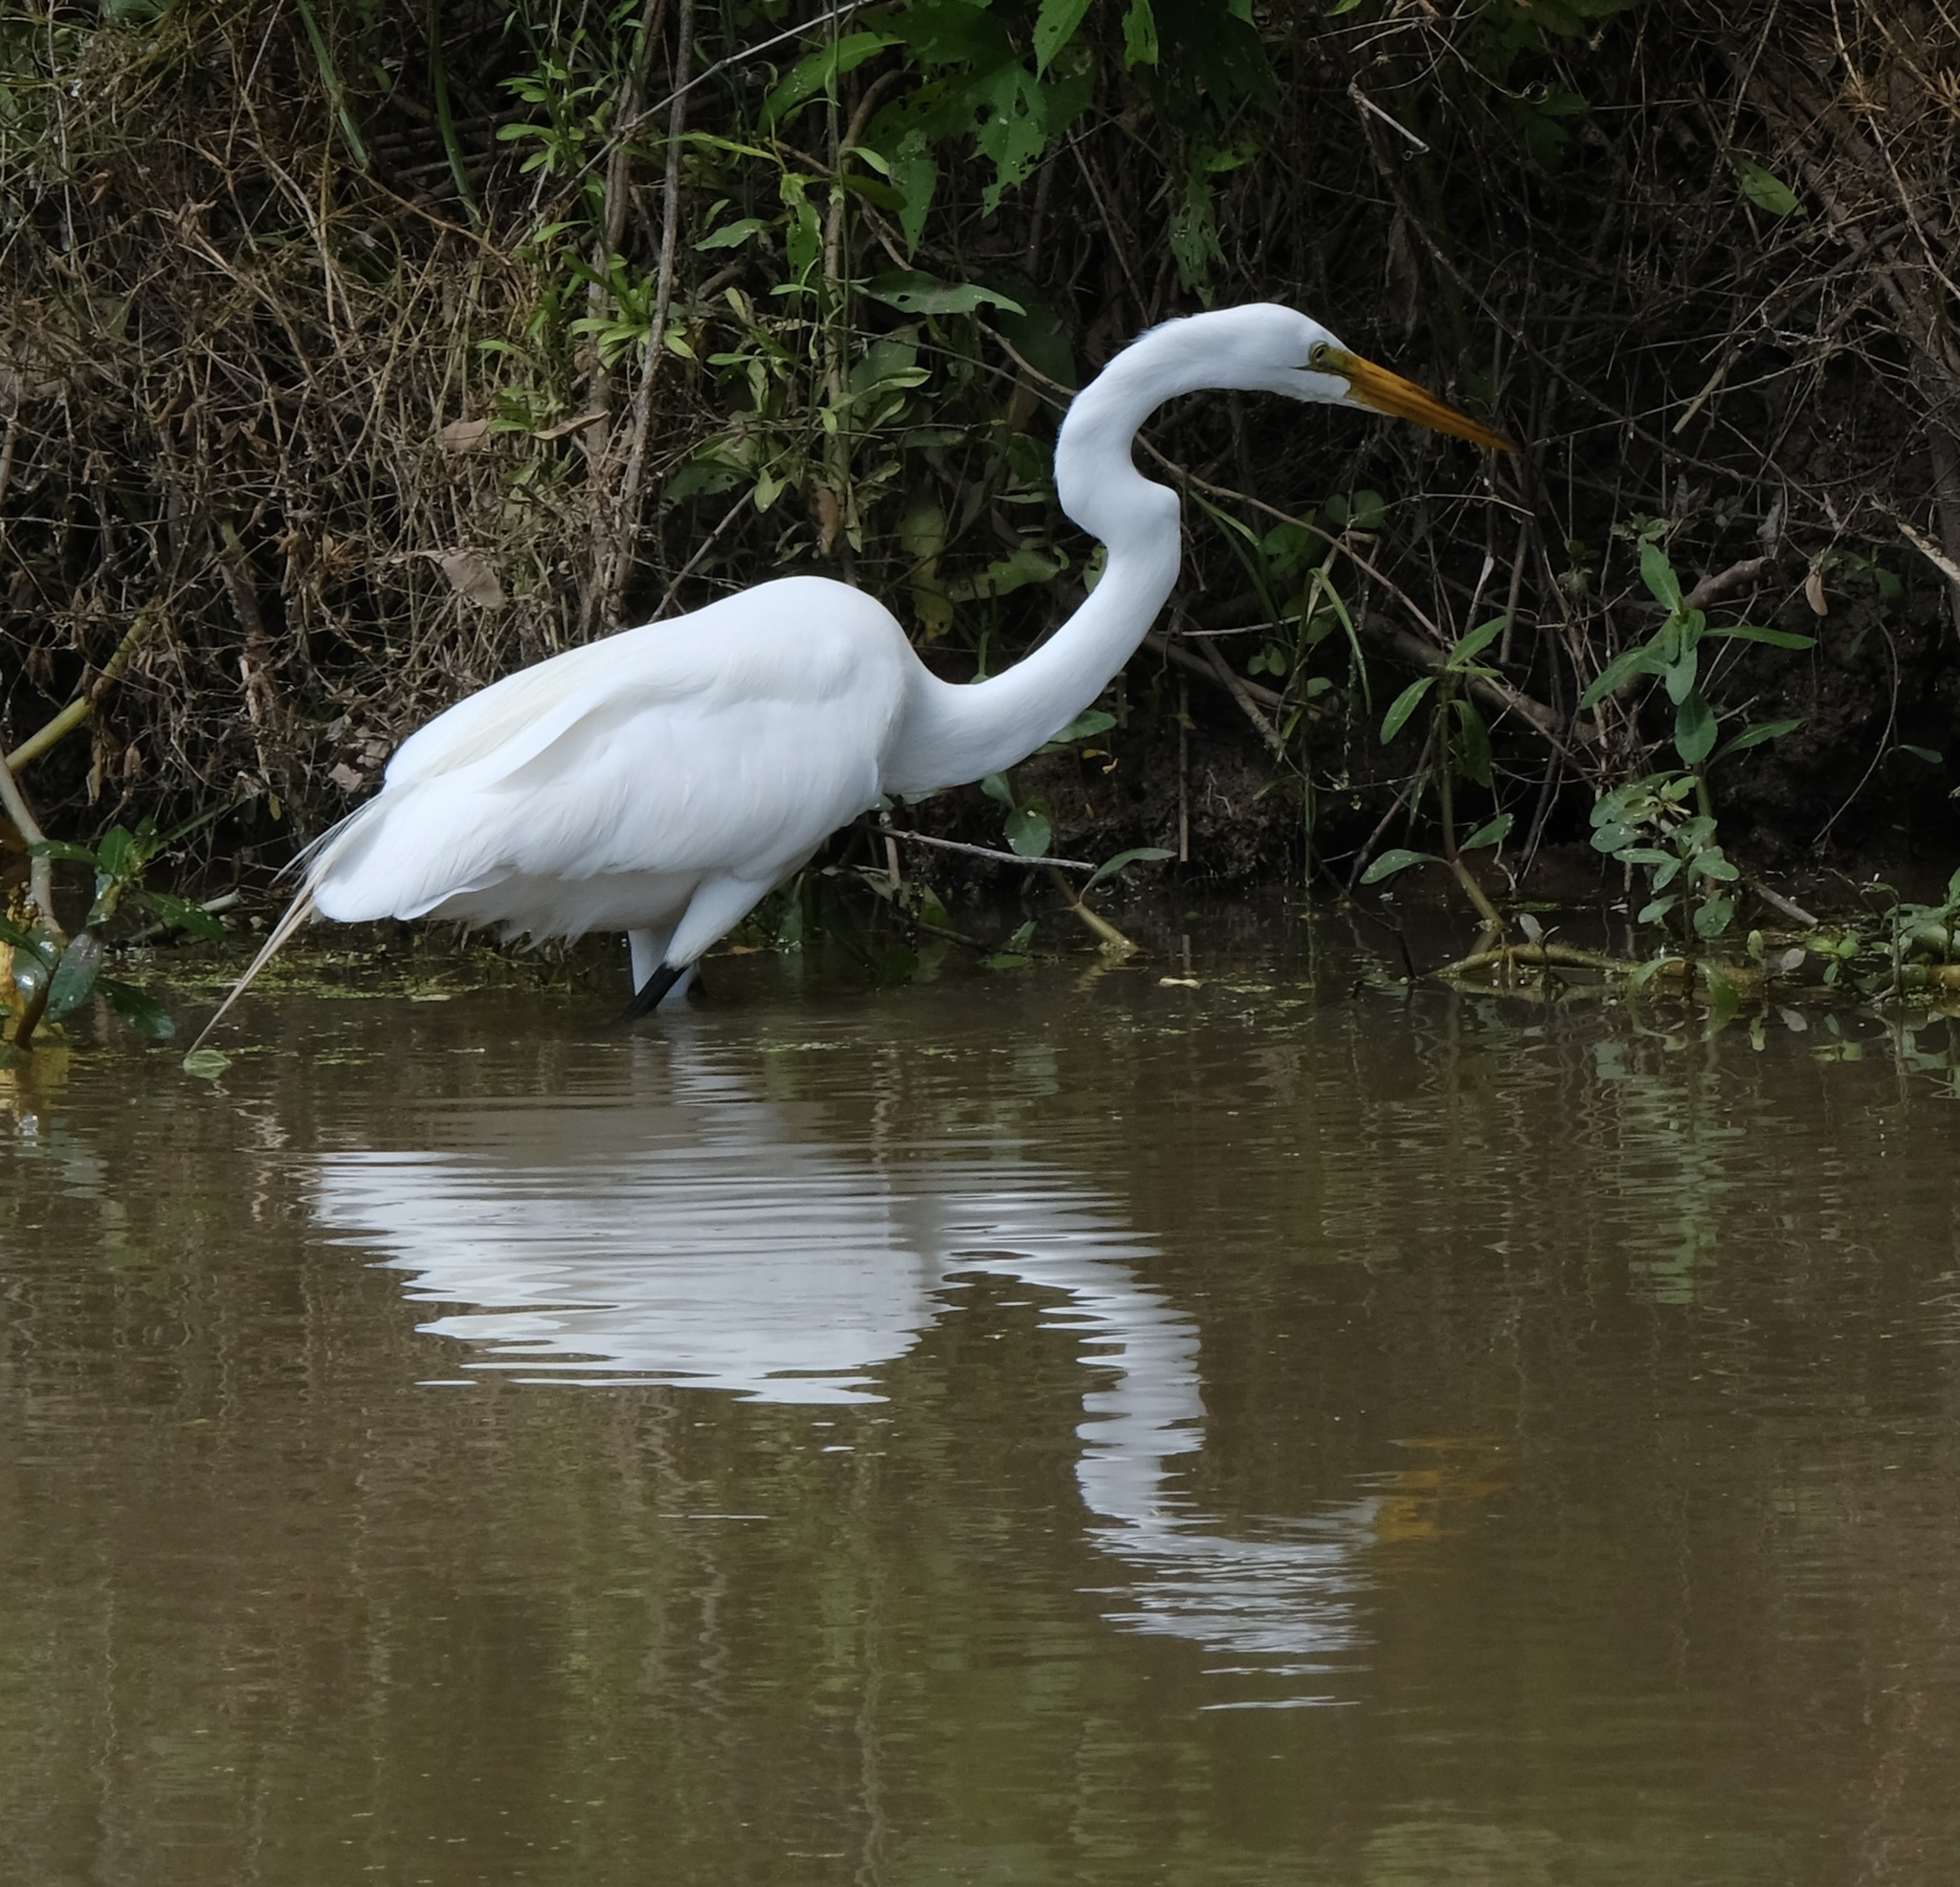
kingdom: Animalia
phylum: Chordata
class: Aves
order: Pelecaniformes
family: Ardeidae
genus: Ardea
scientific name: Ardea alba
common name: Great egret
